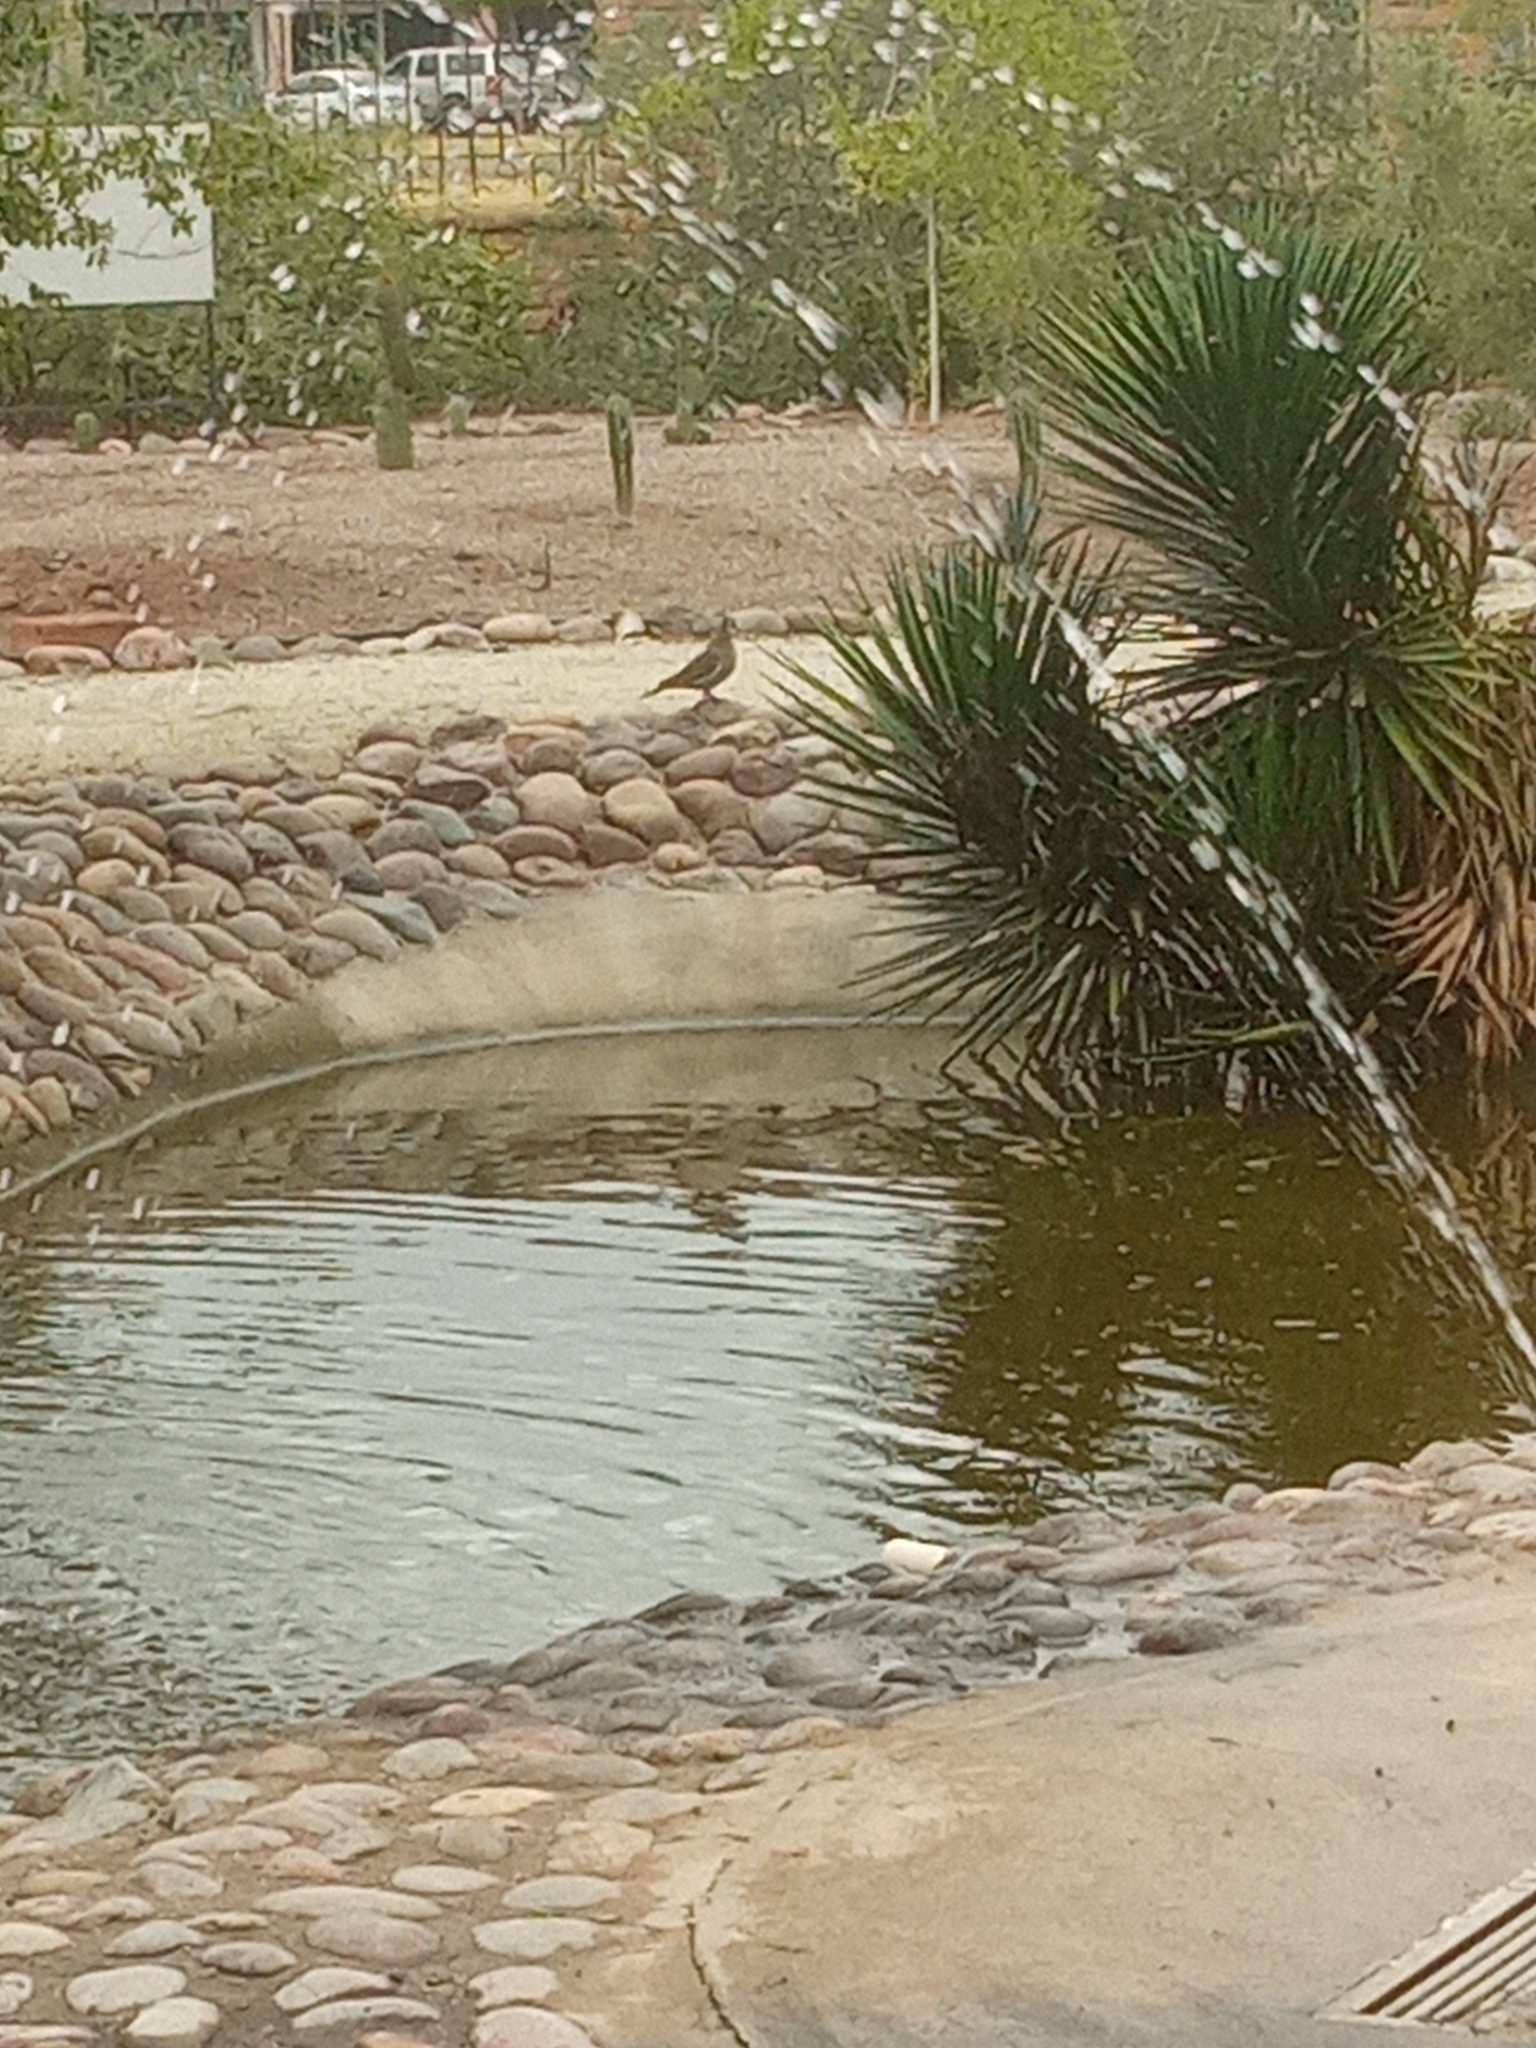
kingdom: Animalia
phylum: Chordata
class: Aves
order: Columbiformes
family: Columbidae
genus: Zenaida
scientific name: Zenaida asiatica
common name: White-winged dove
